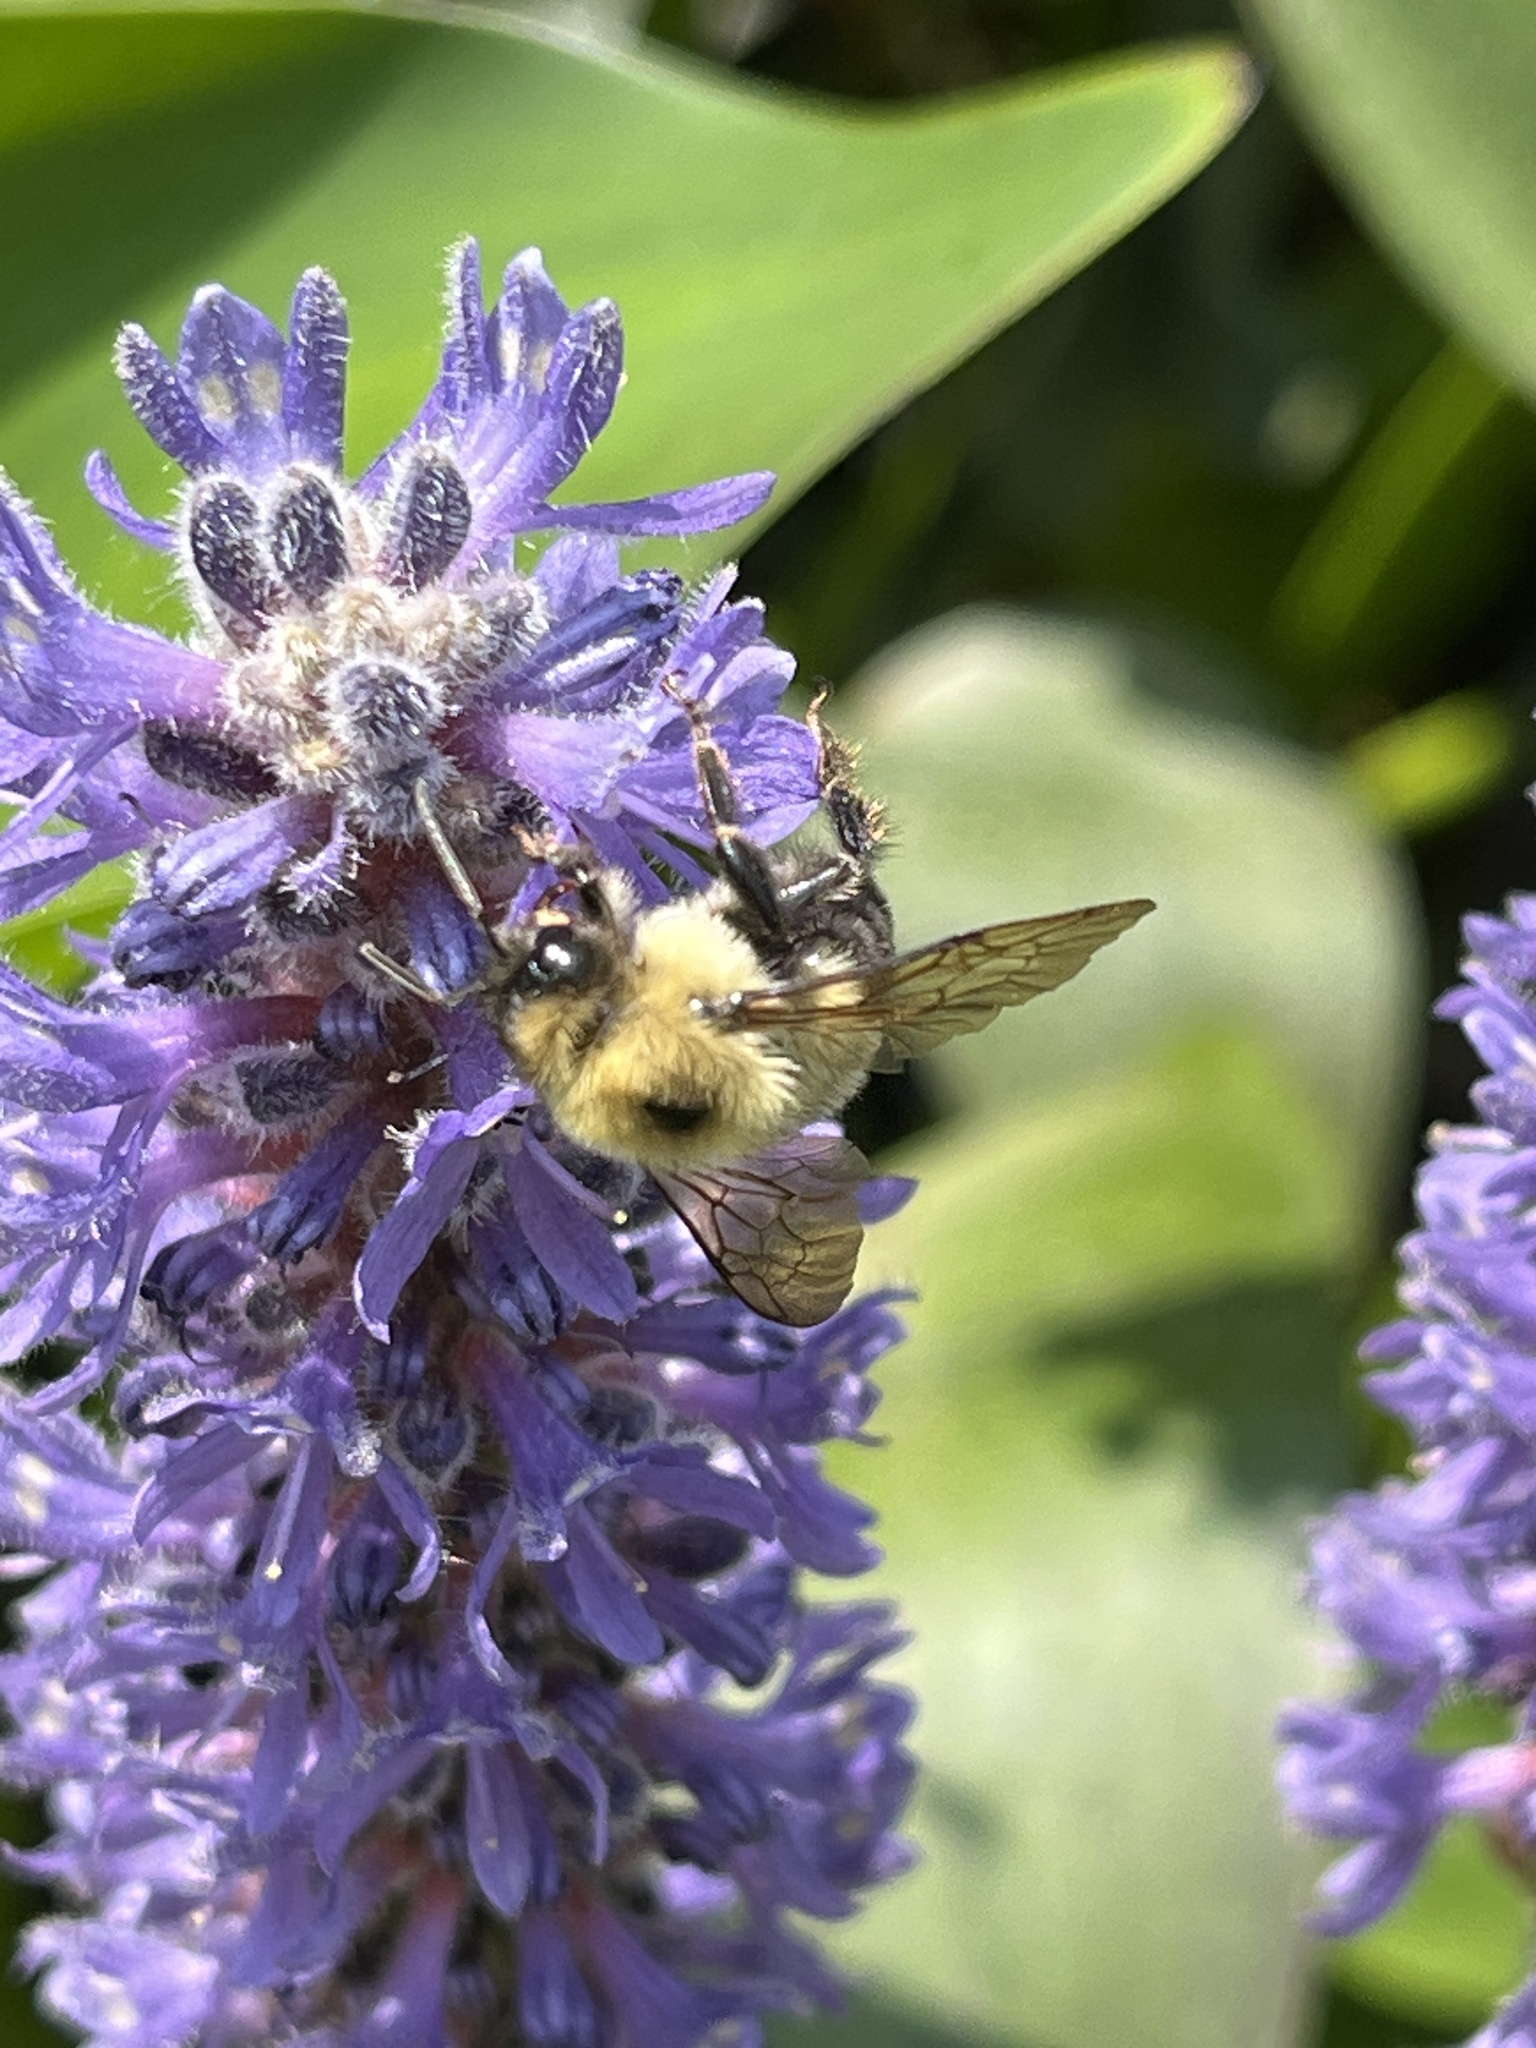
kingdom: Animalia
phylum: Arthropoda
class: Insecta
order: Hymenoptera
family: Apidae
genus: Bombus
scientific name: Bombus bimaculatus
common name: Two-spotted bumble bee
